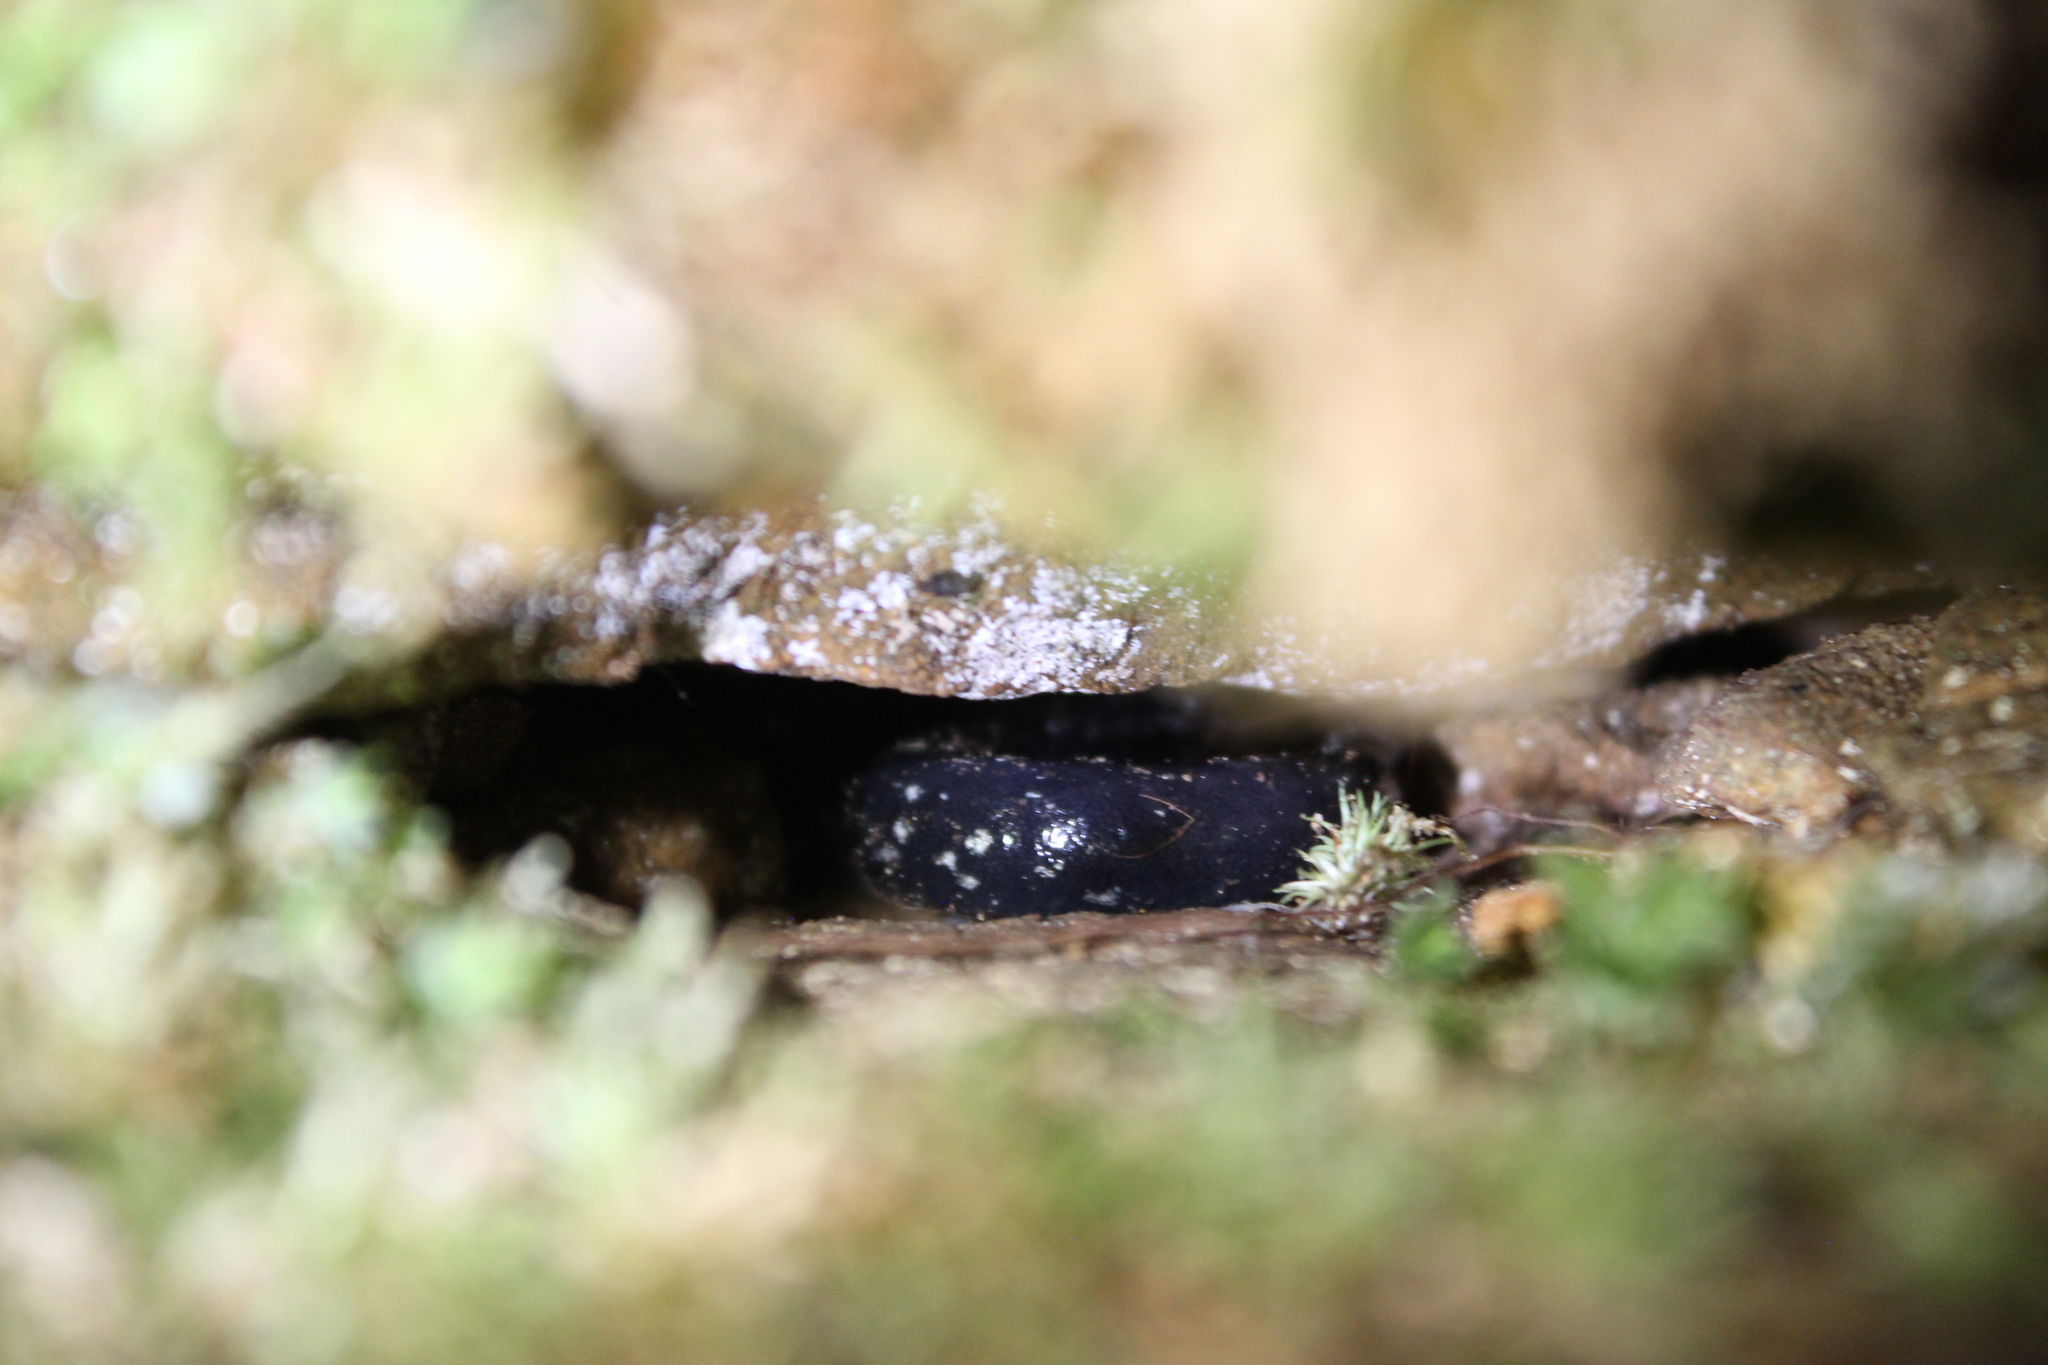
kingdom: Animalia
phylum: Chordata
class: Amphibia
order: Caudata
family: Plethodontidae
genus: Plethodon
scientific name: Plethodon mississippi
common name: Mississippi slimy salamander
